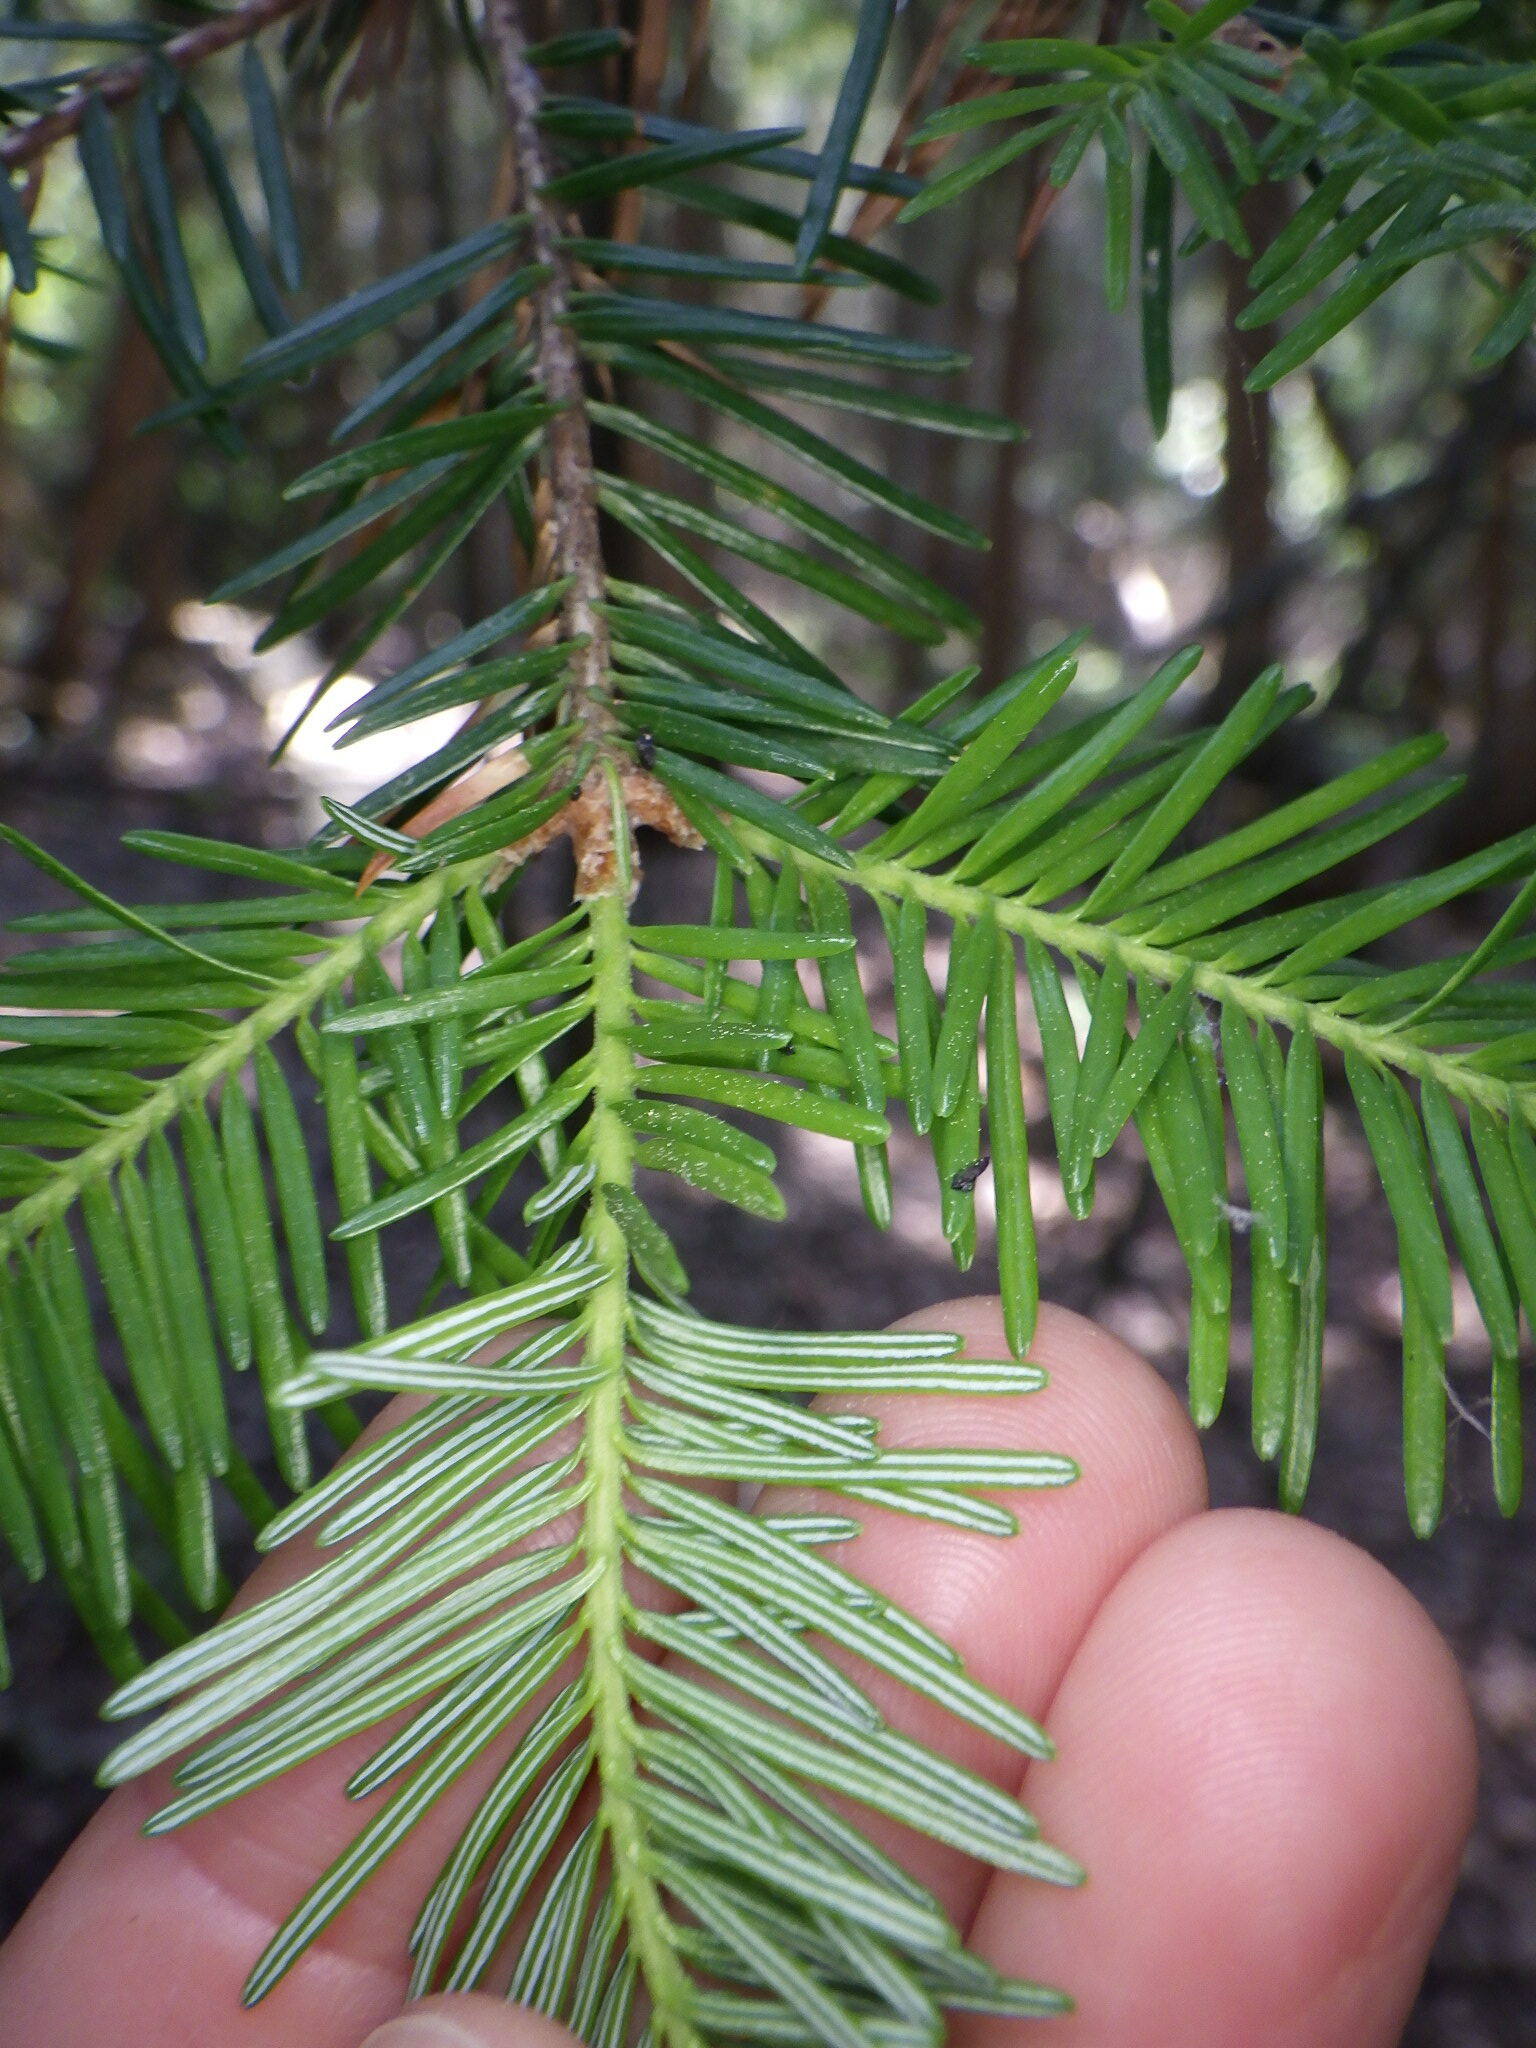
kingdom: Plantae
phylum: Tracheophyta
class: Pinopsida
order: Pinales
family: Pinaceae
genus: Abies
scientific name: Abies balsamea
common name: Balsam fir
